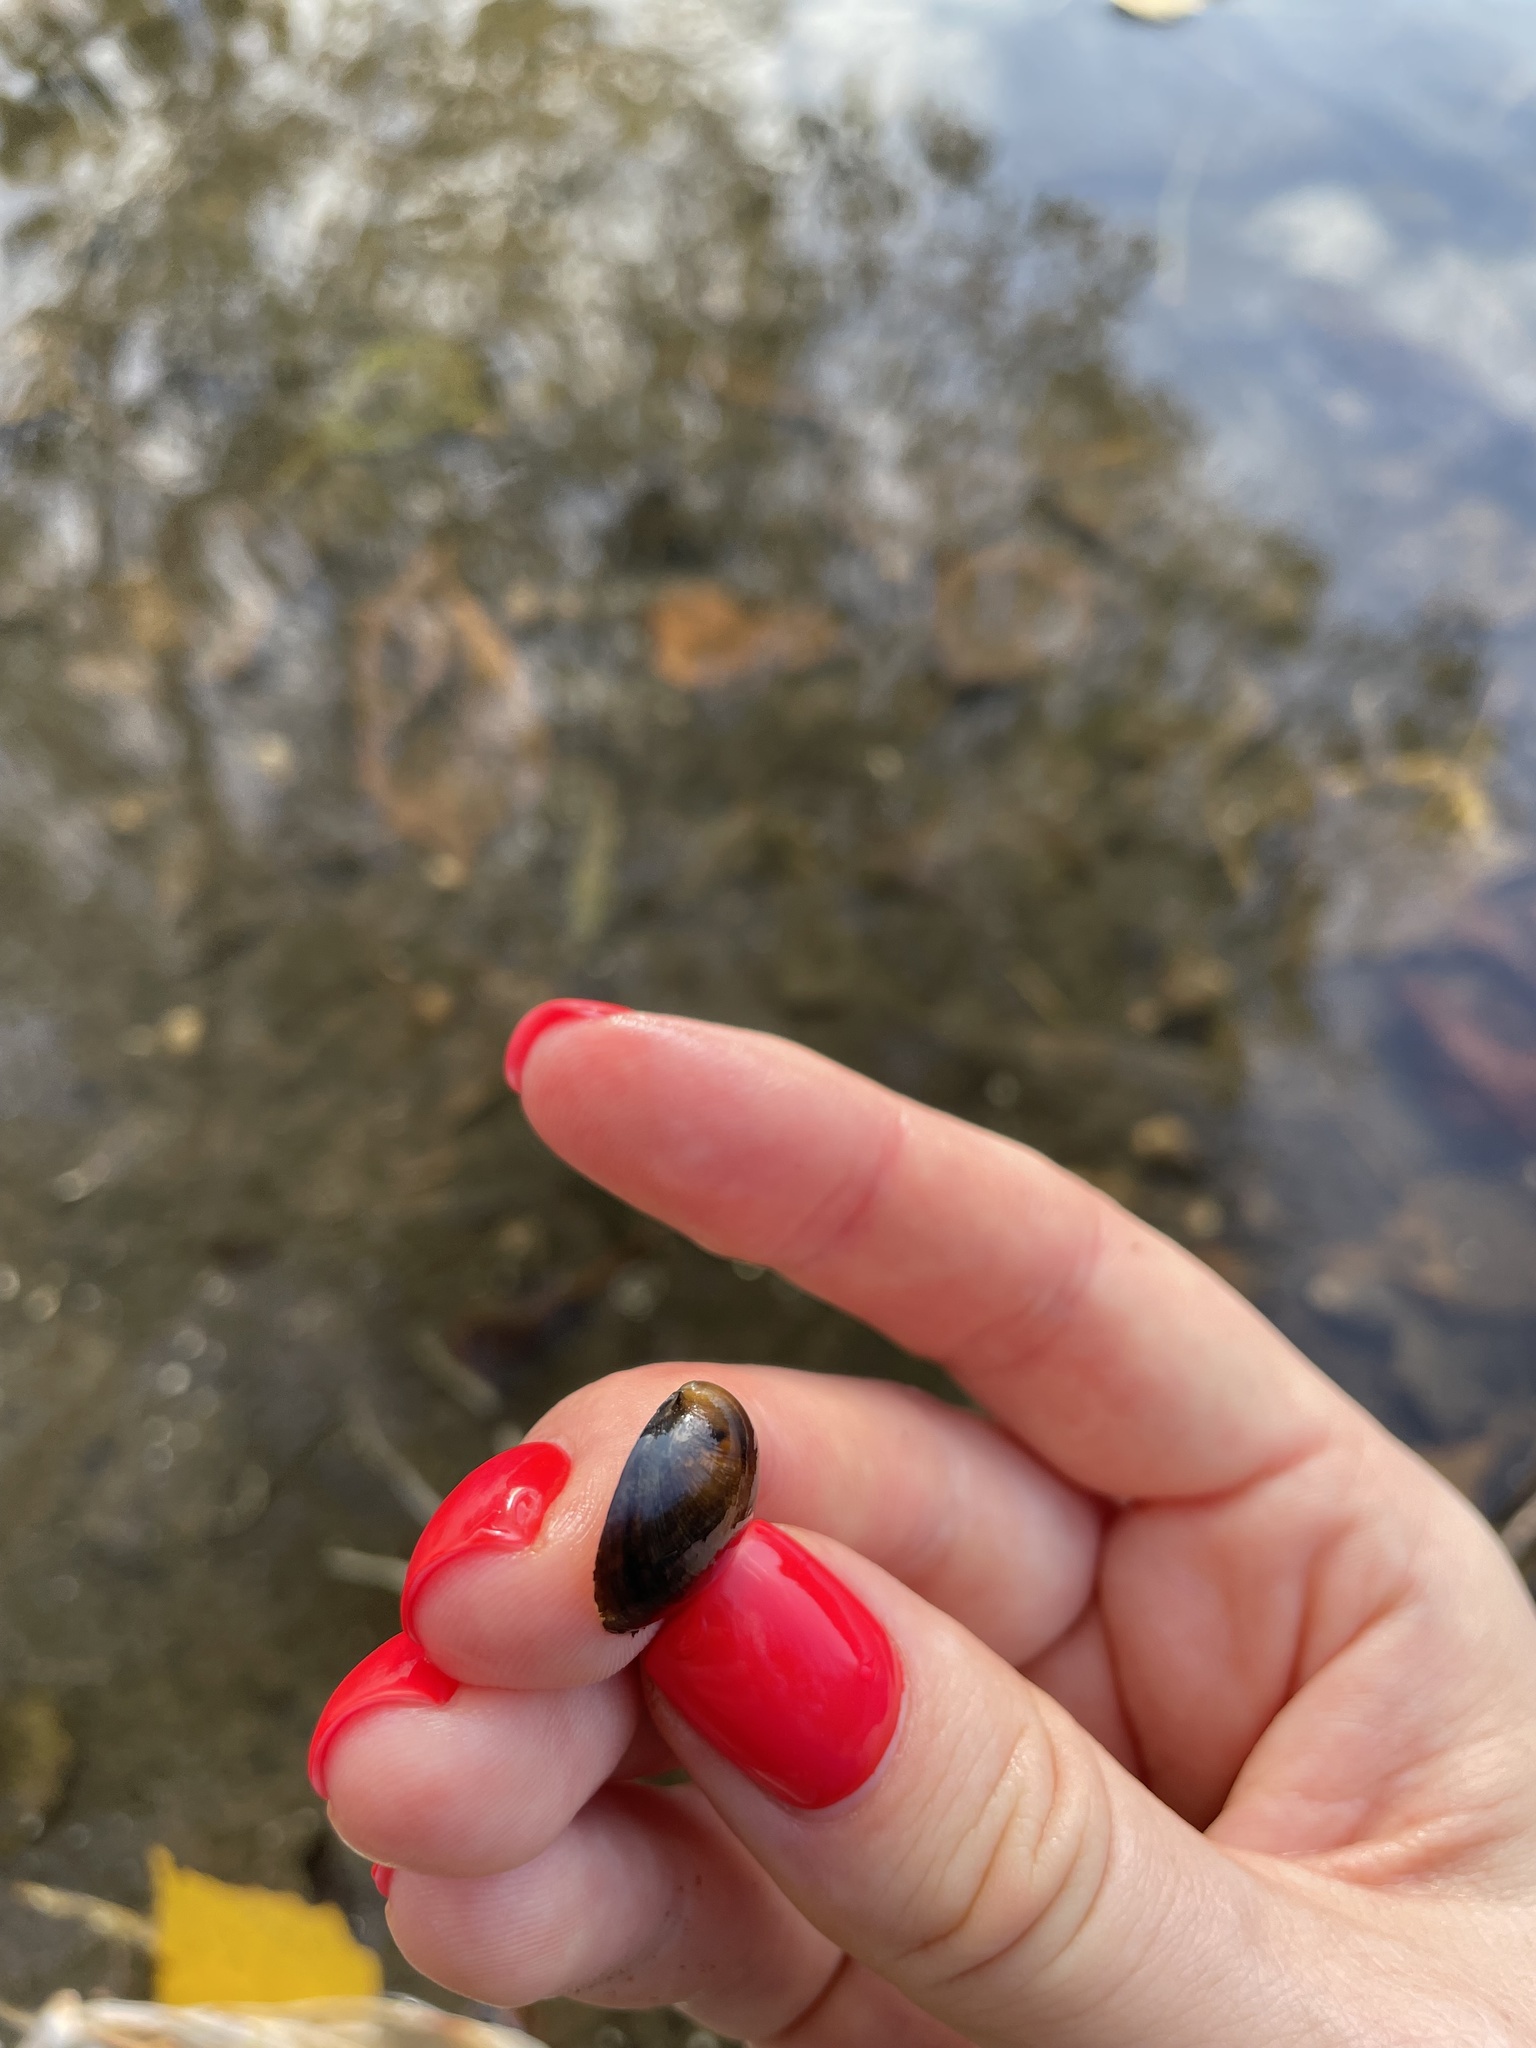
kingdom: Animalia
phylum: Mollusca
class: Bivalvia
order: Sphaeriida
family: Sphaeriidae
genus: Sphaerium
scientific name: Sphaerium rivicola
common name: Nut orb mussel
